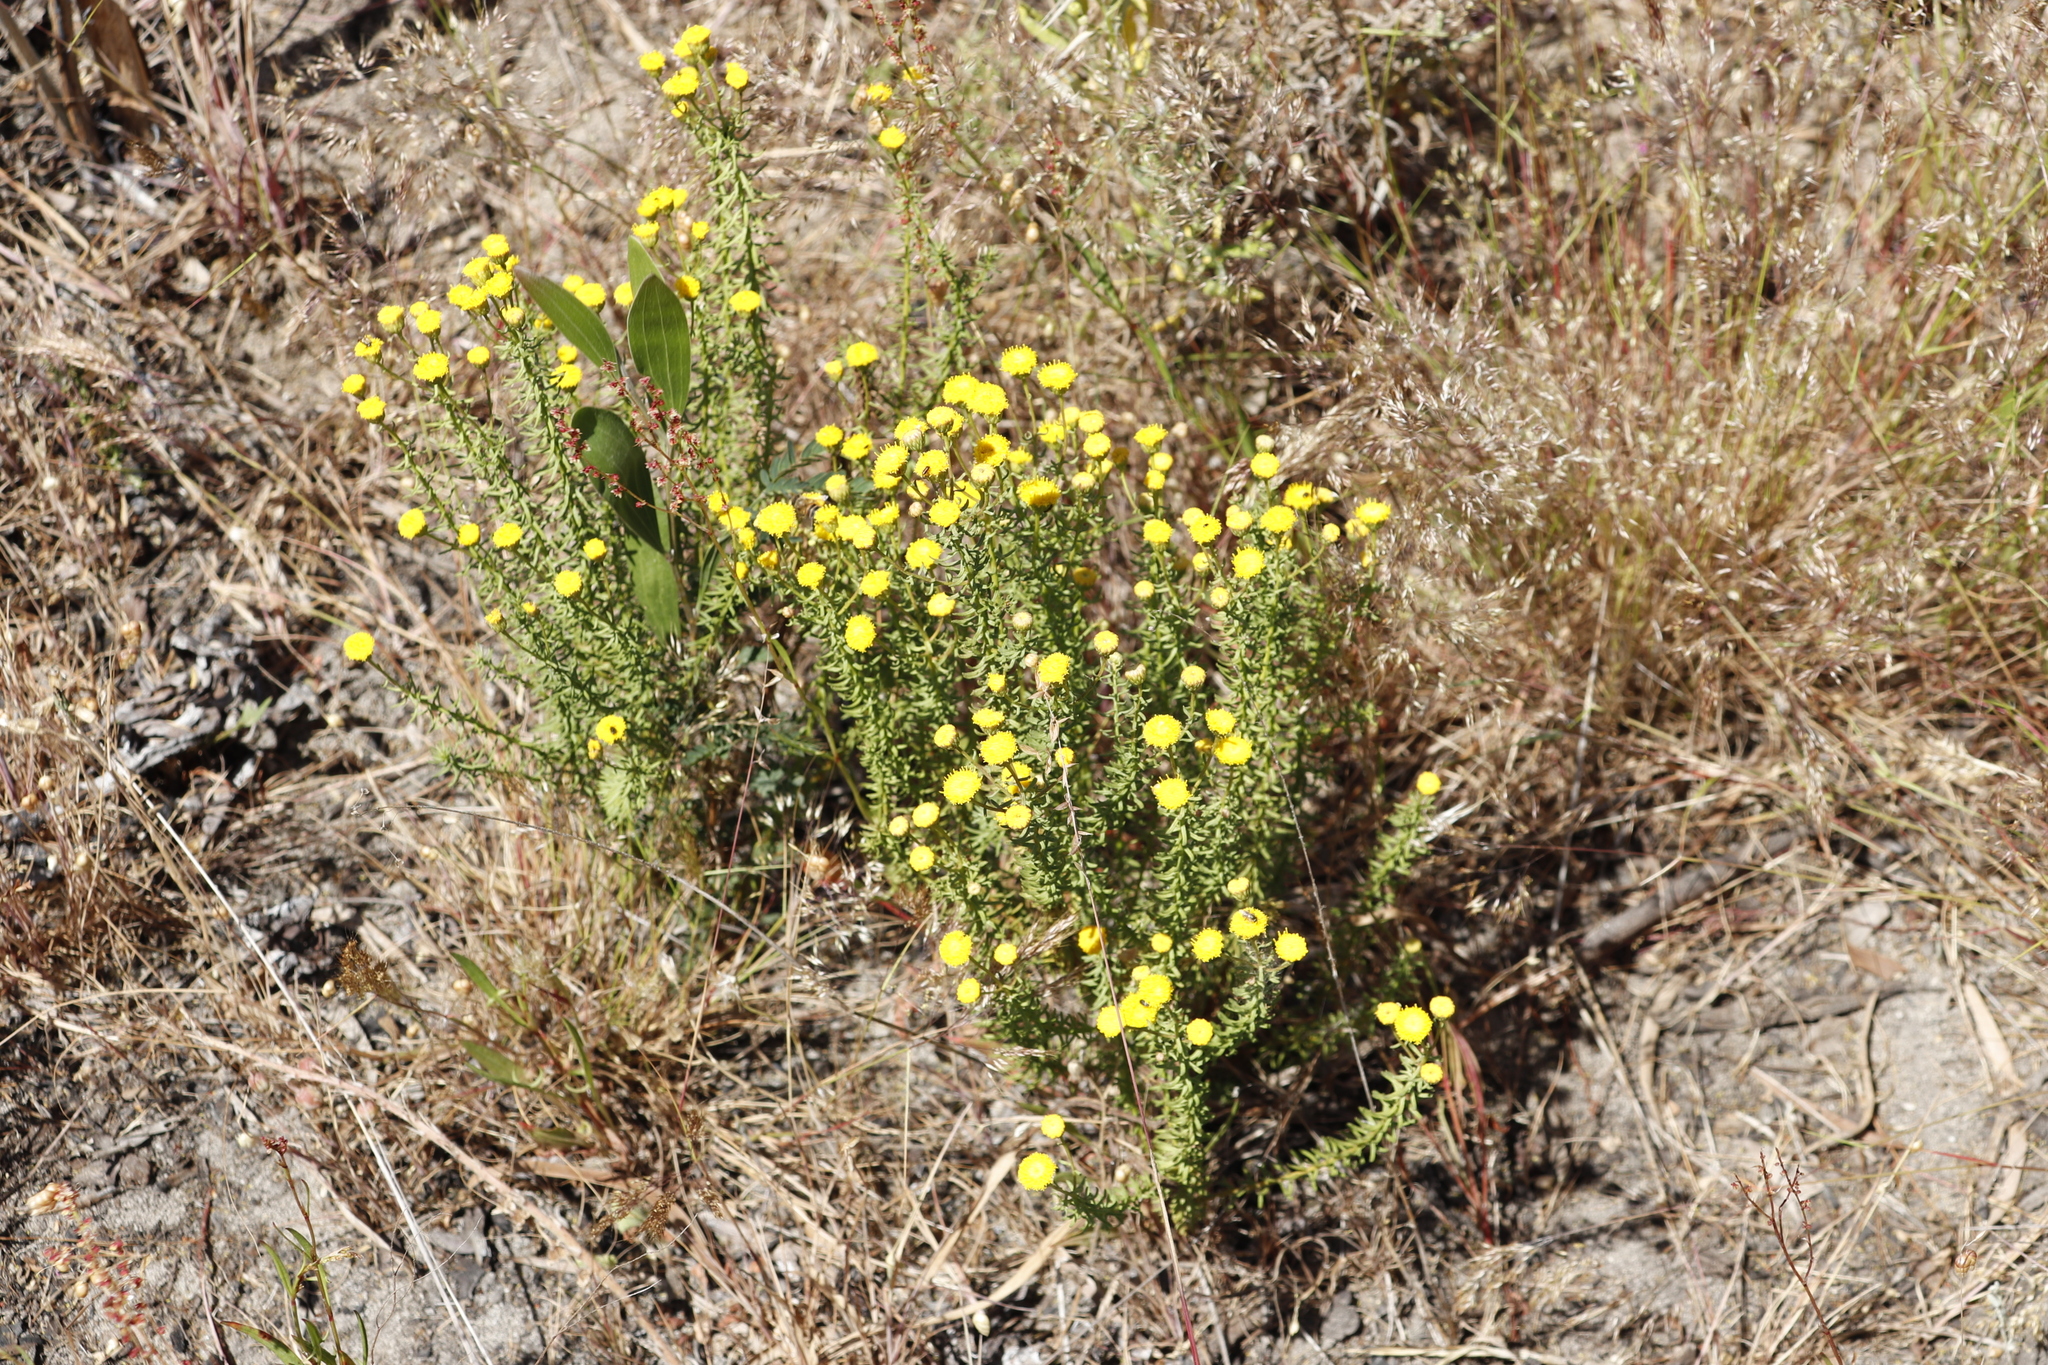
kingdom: Plantae
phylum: Tracheophyta
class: Magnoliopsida
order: Asterales
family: Asteraceae
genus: Chrysocoma
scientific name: Chrysocoma ciliata
